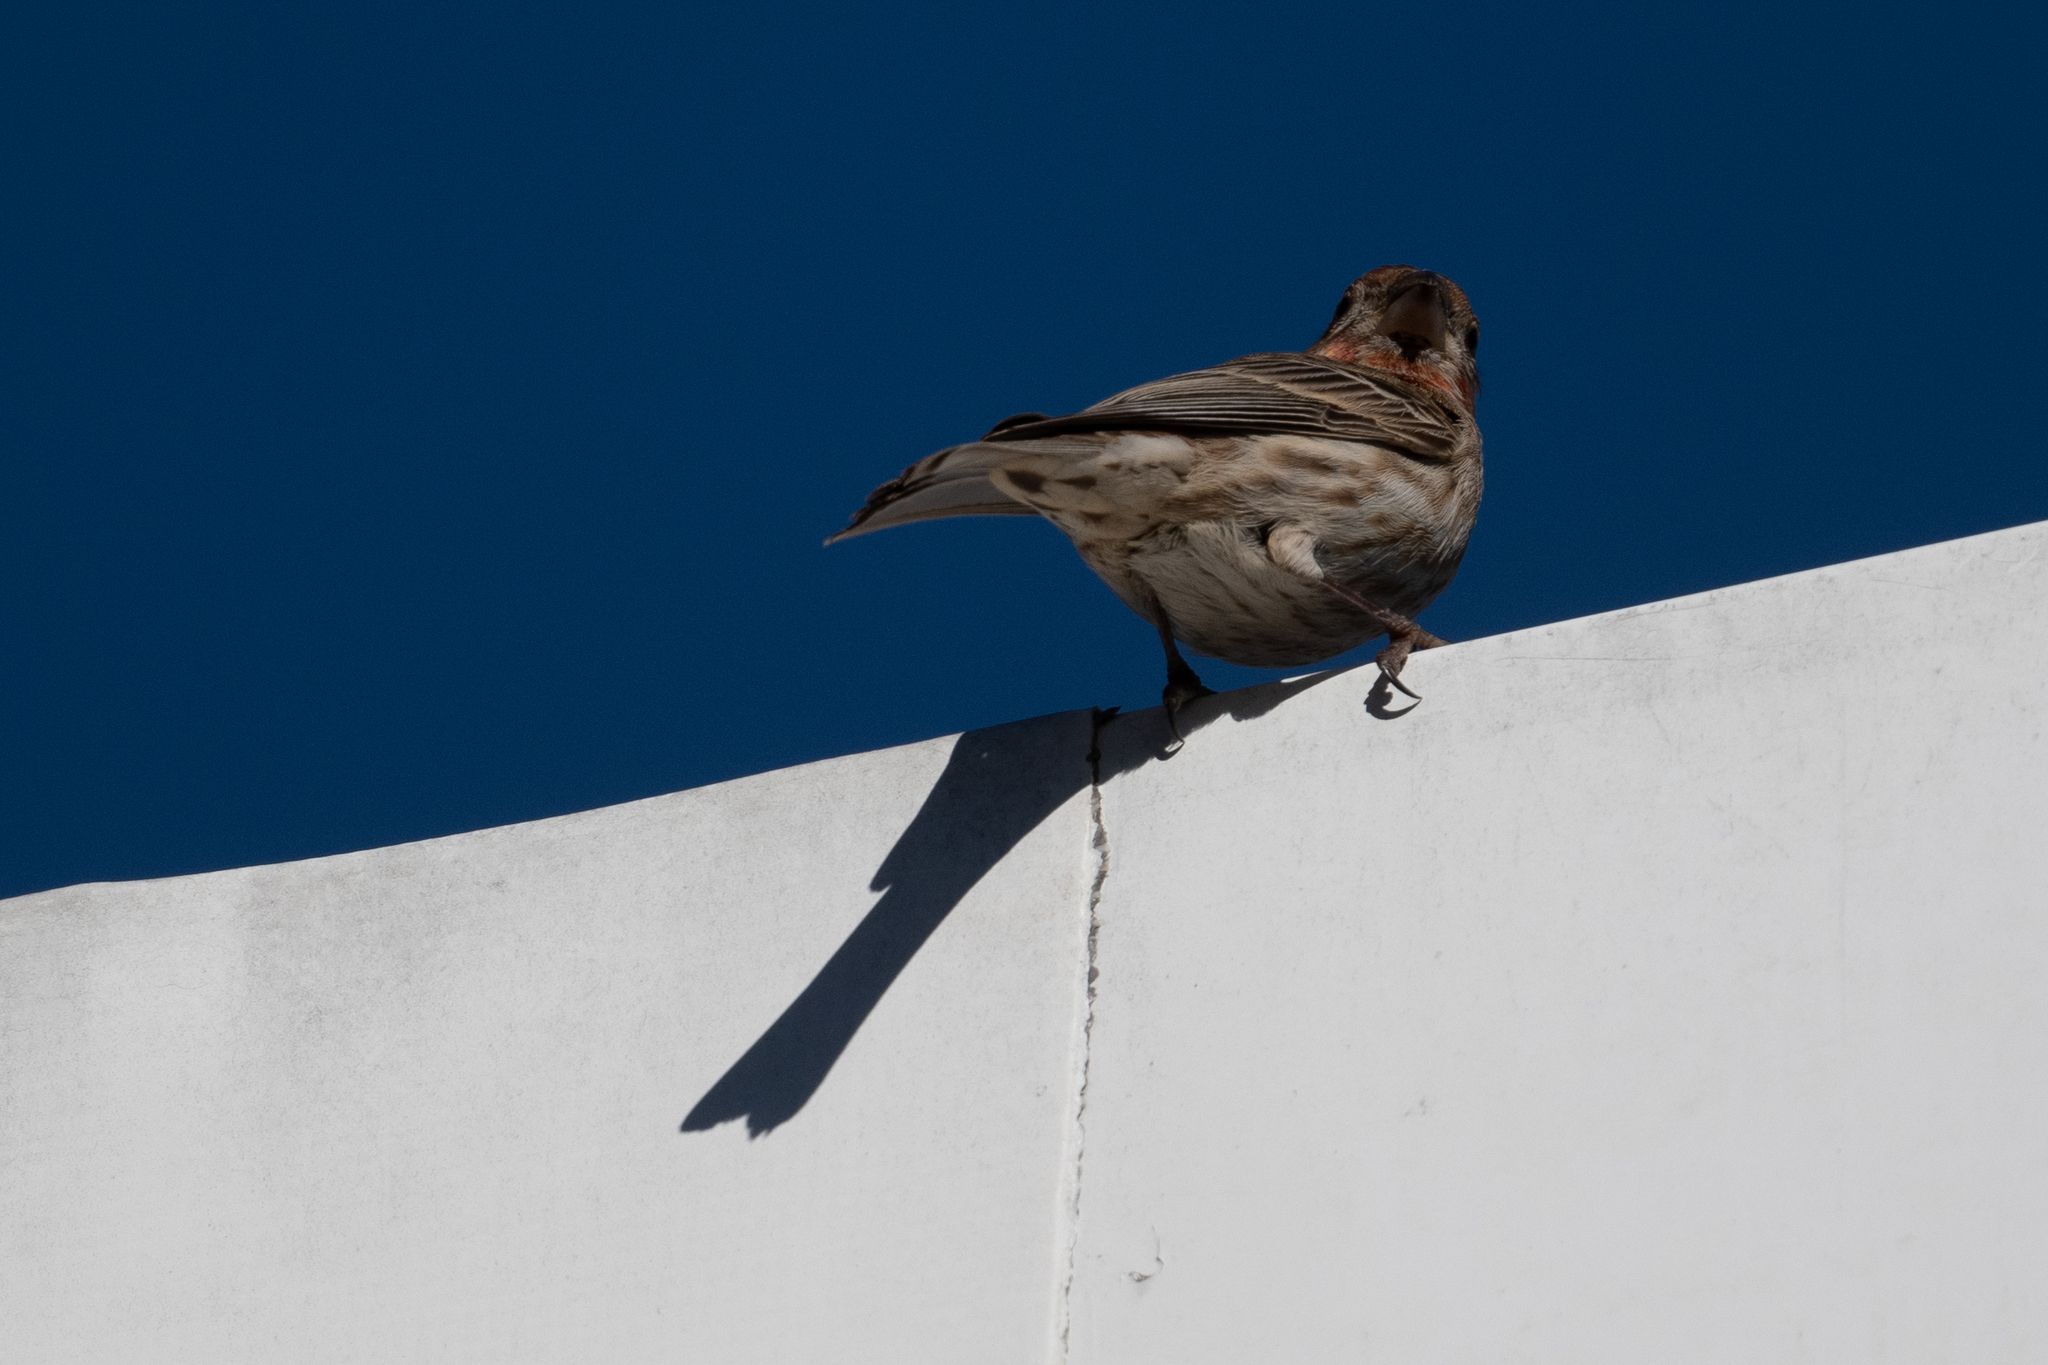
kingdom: Animalia
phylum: Chordata
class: Aves
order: Passeriformes
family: Fringillidae
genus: Haemorhous
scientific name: Haemorhous mexicanus
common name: House finch
